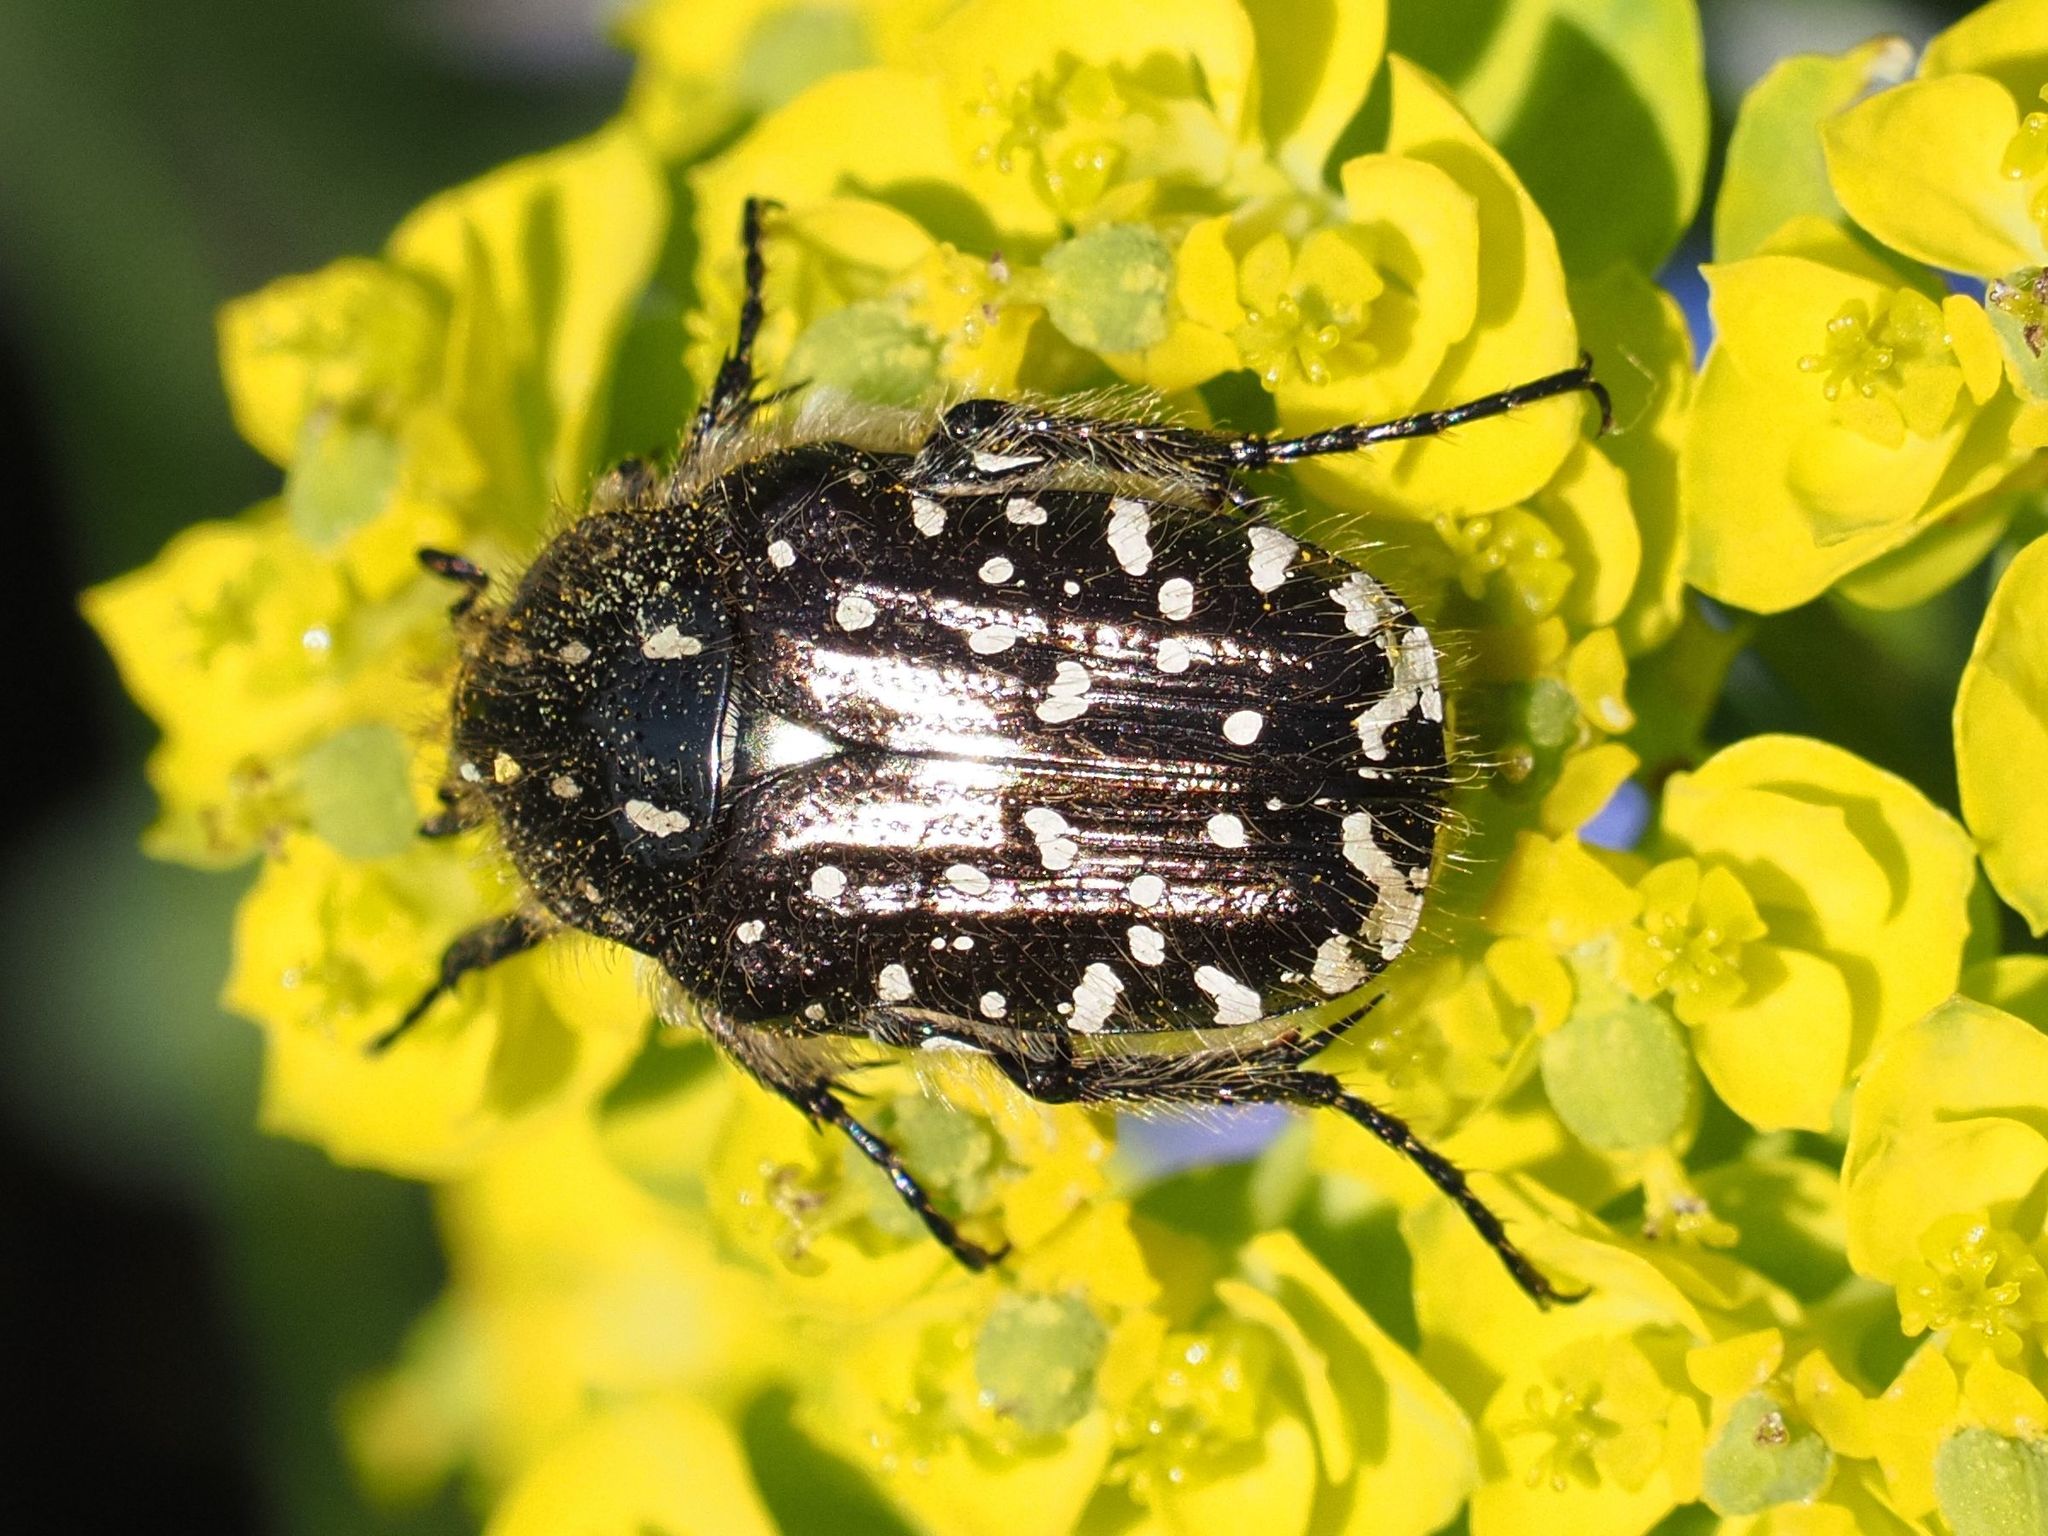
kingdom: Animalia
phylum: Arthropoda
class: Insecta
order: Coleoptera
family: Scarabaeidae
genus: Oxythyrea
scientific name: Oxythyrea funesta
